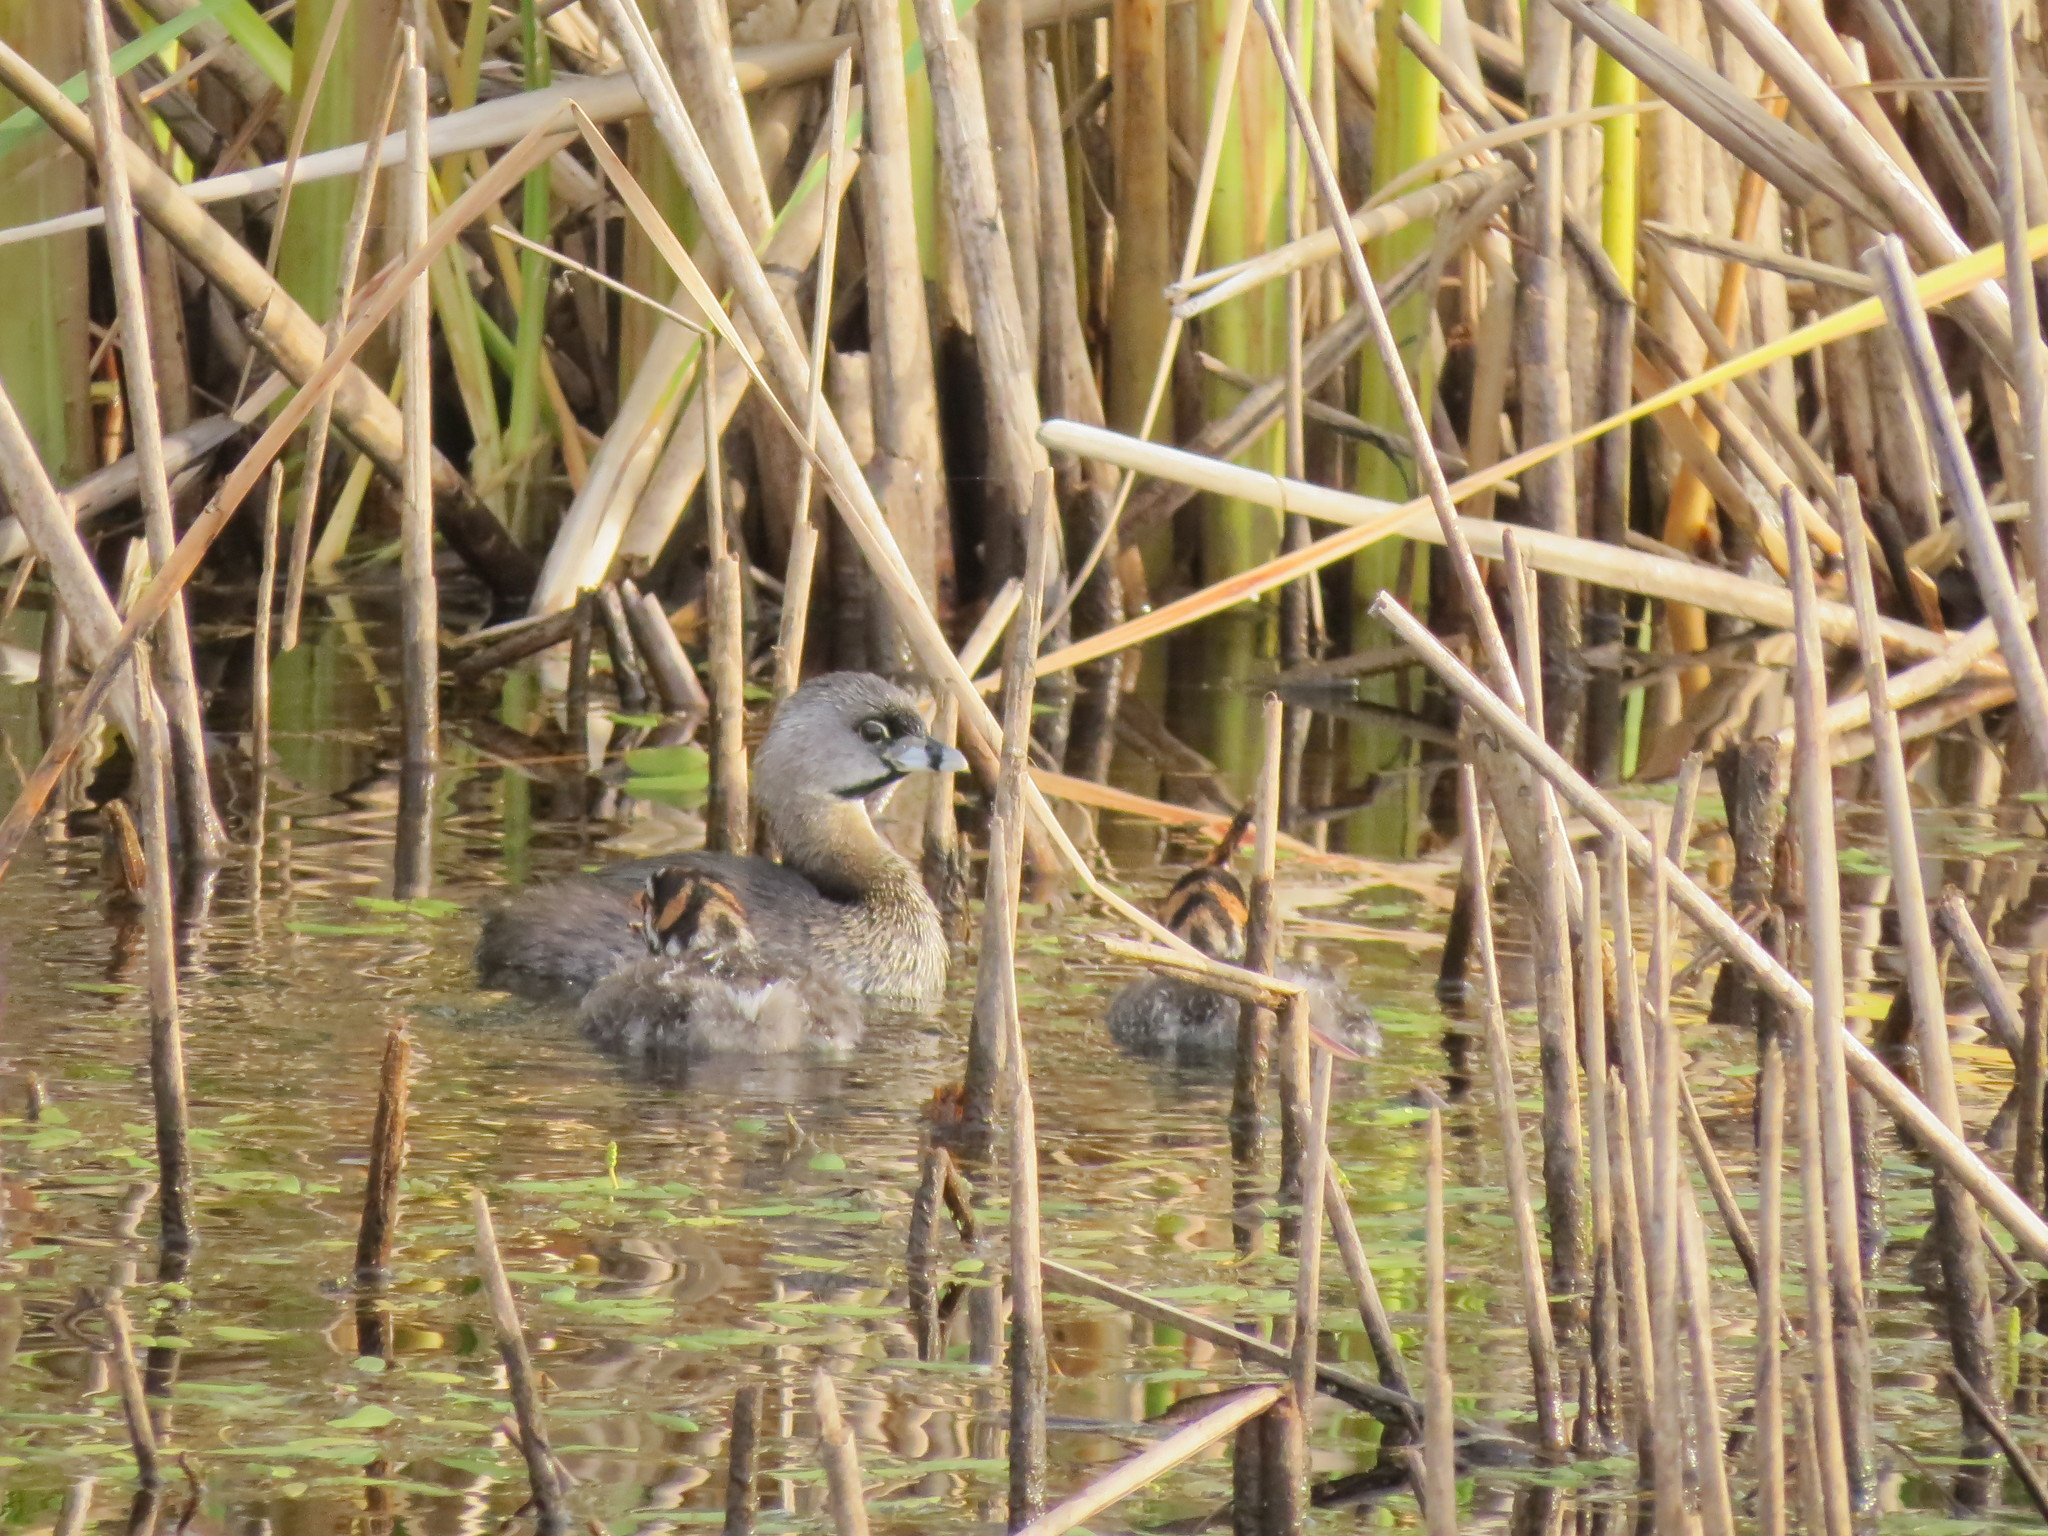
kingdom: Animalia
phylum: Chordata
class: Aves
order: Podicipediformes
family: Podicipedidae
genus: Podilymbus
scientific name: Podilymbus podiceps
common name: Pied-billed grebe
